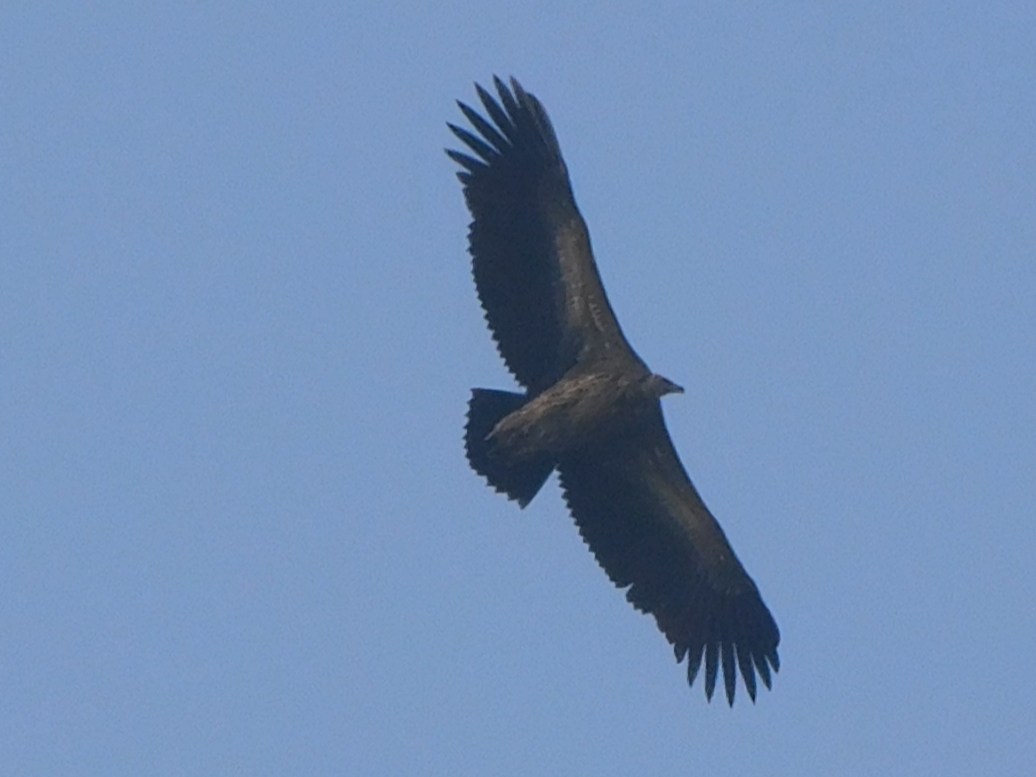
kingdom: Animalia
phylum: Chordata
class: Aves
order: Accipitriformes
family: Accipitridae
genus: Gyps
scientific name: Gyps himalayensis
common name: Himalayan griffon
